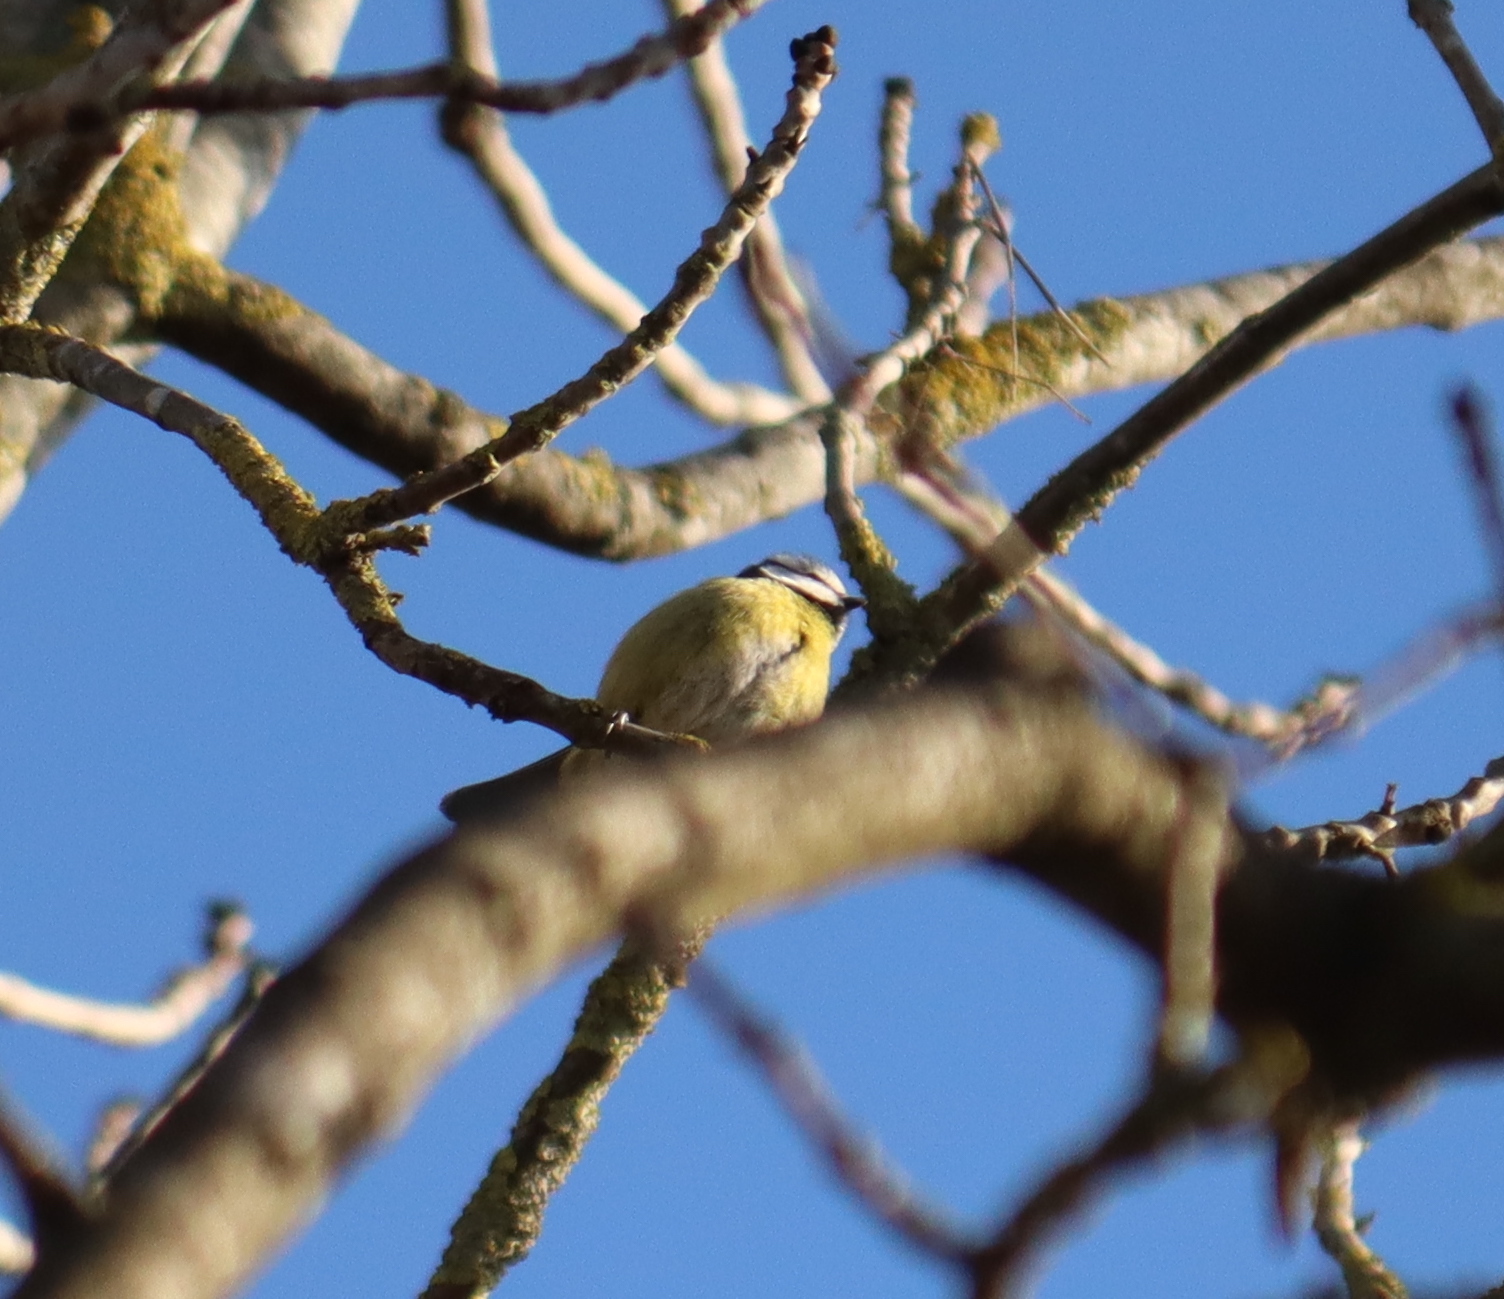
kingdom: Animalia
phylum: Chordata
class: Aves
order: Passeriformes
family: Paridae
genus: Cyanistes
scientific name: Cyanistes caeruleus
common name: Eurasian blue tit
